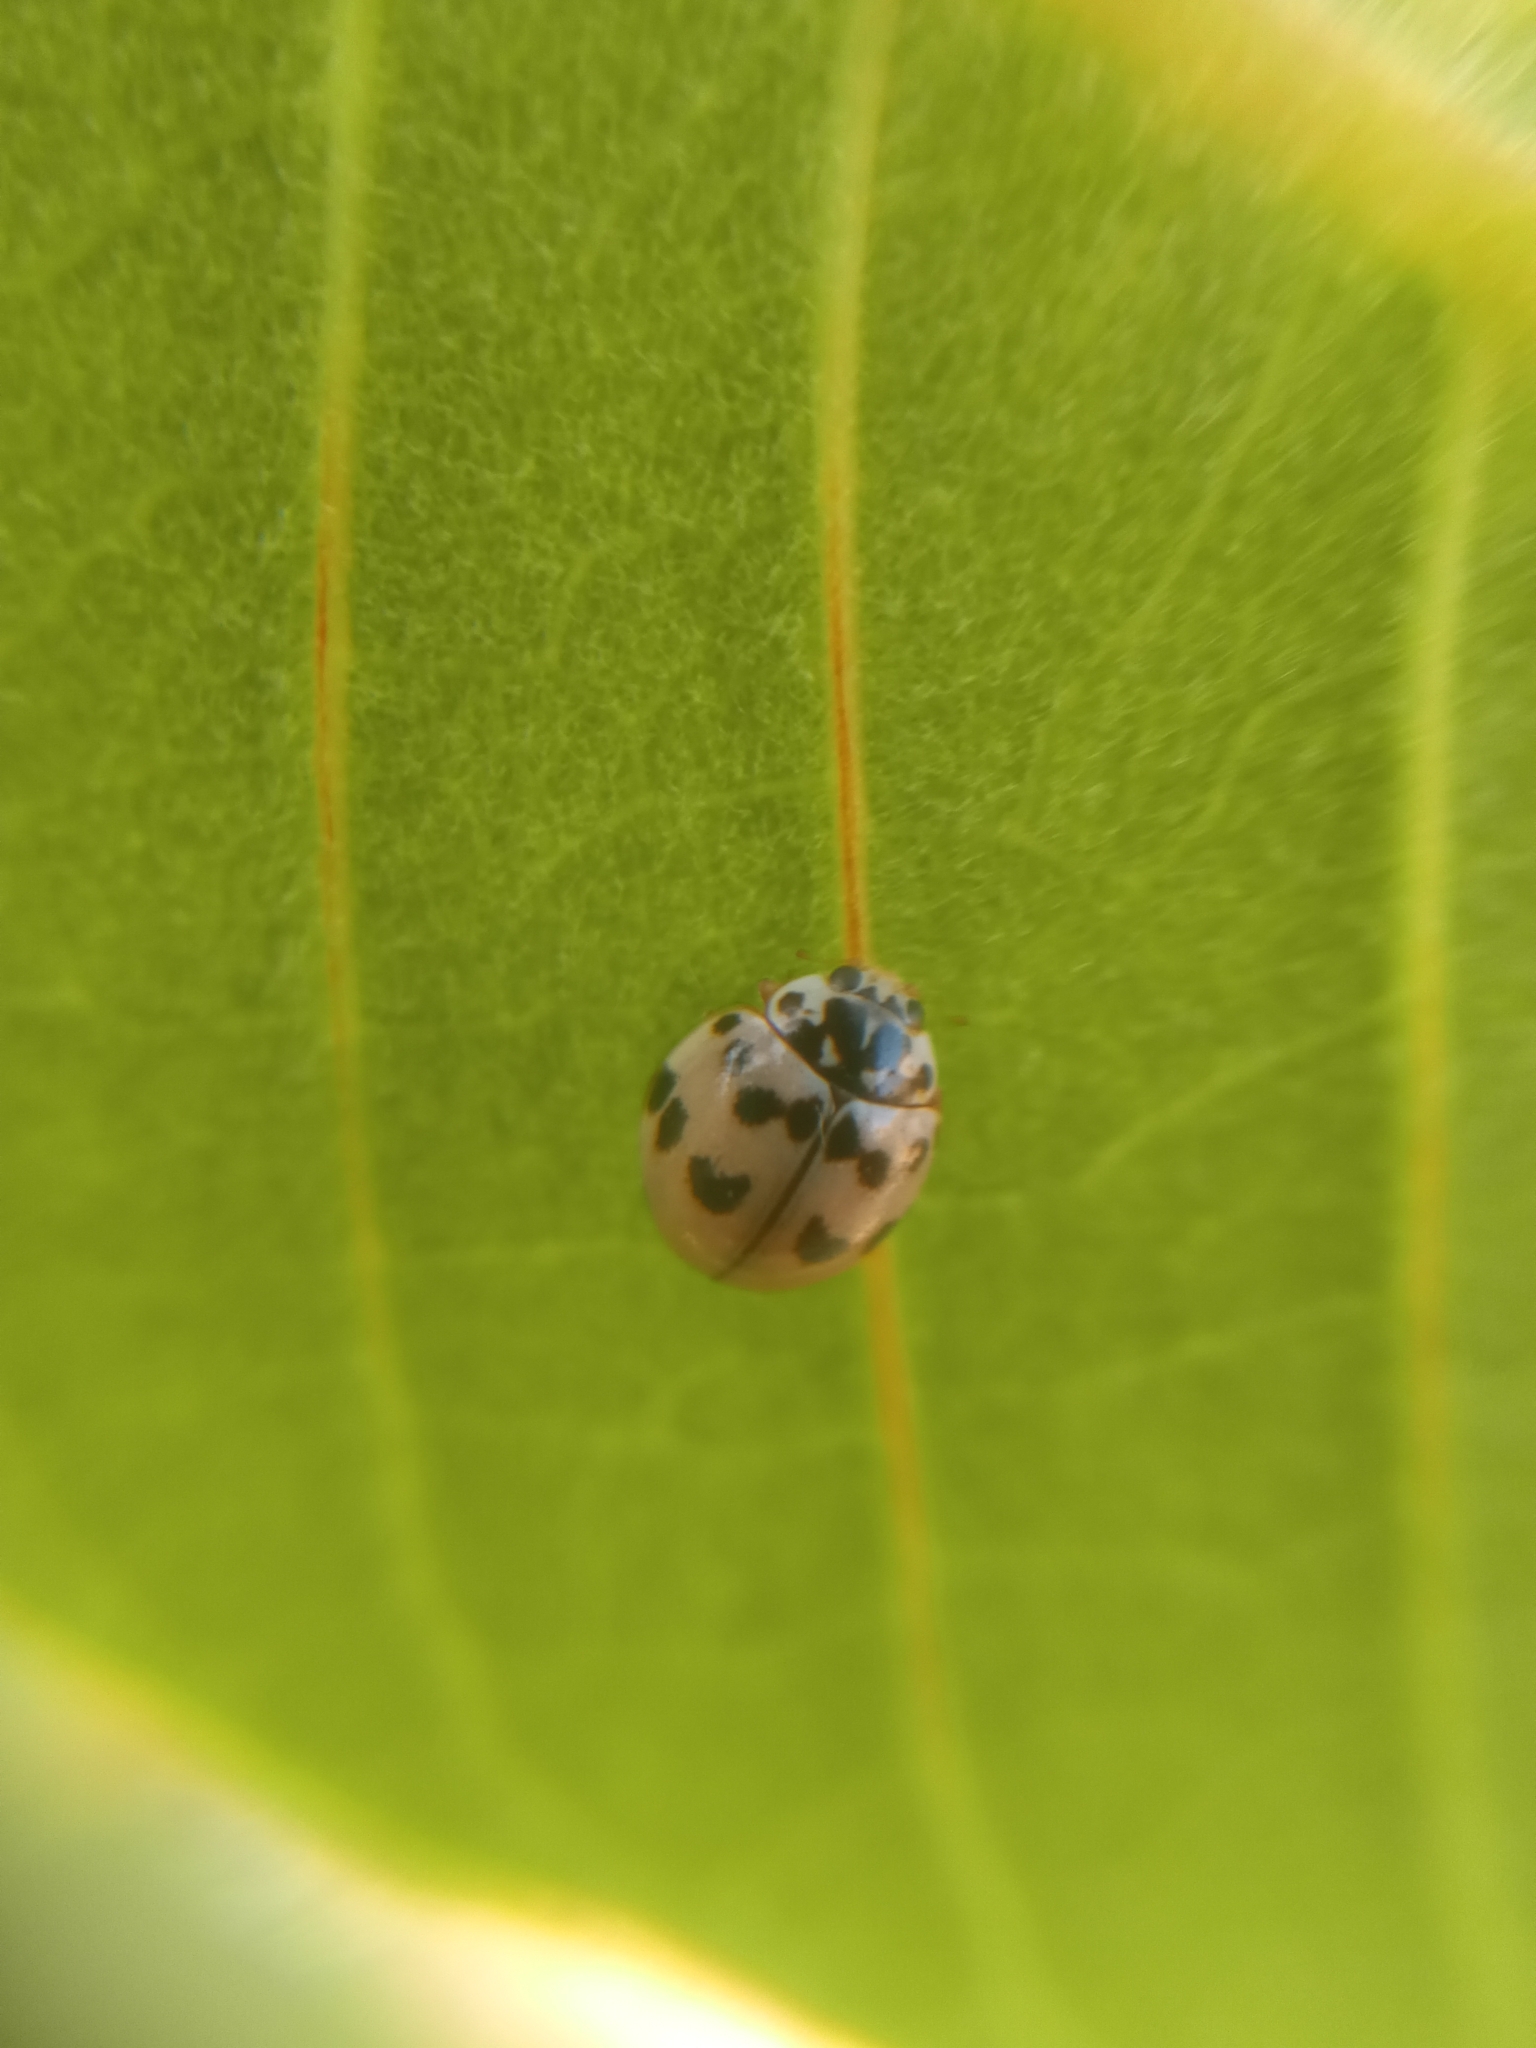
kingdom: Animalia
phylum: Arthropoda
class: Insecta
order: Coleoptera
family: Coccinellidae
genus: Olla
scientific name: Olla v-nigrum
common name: Ashy gray lady beetle
